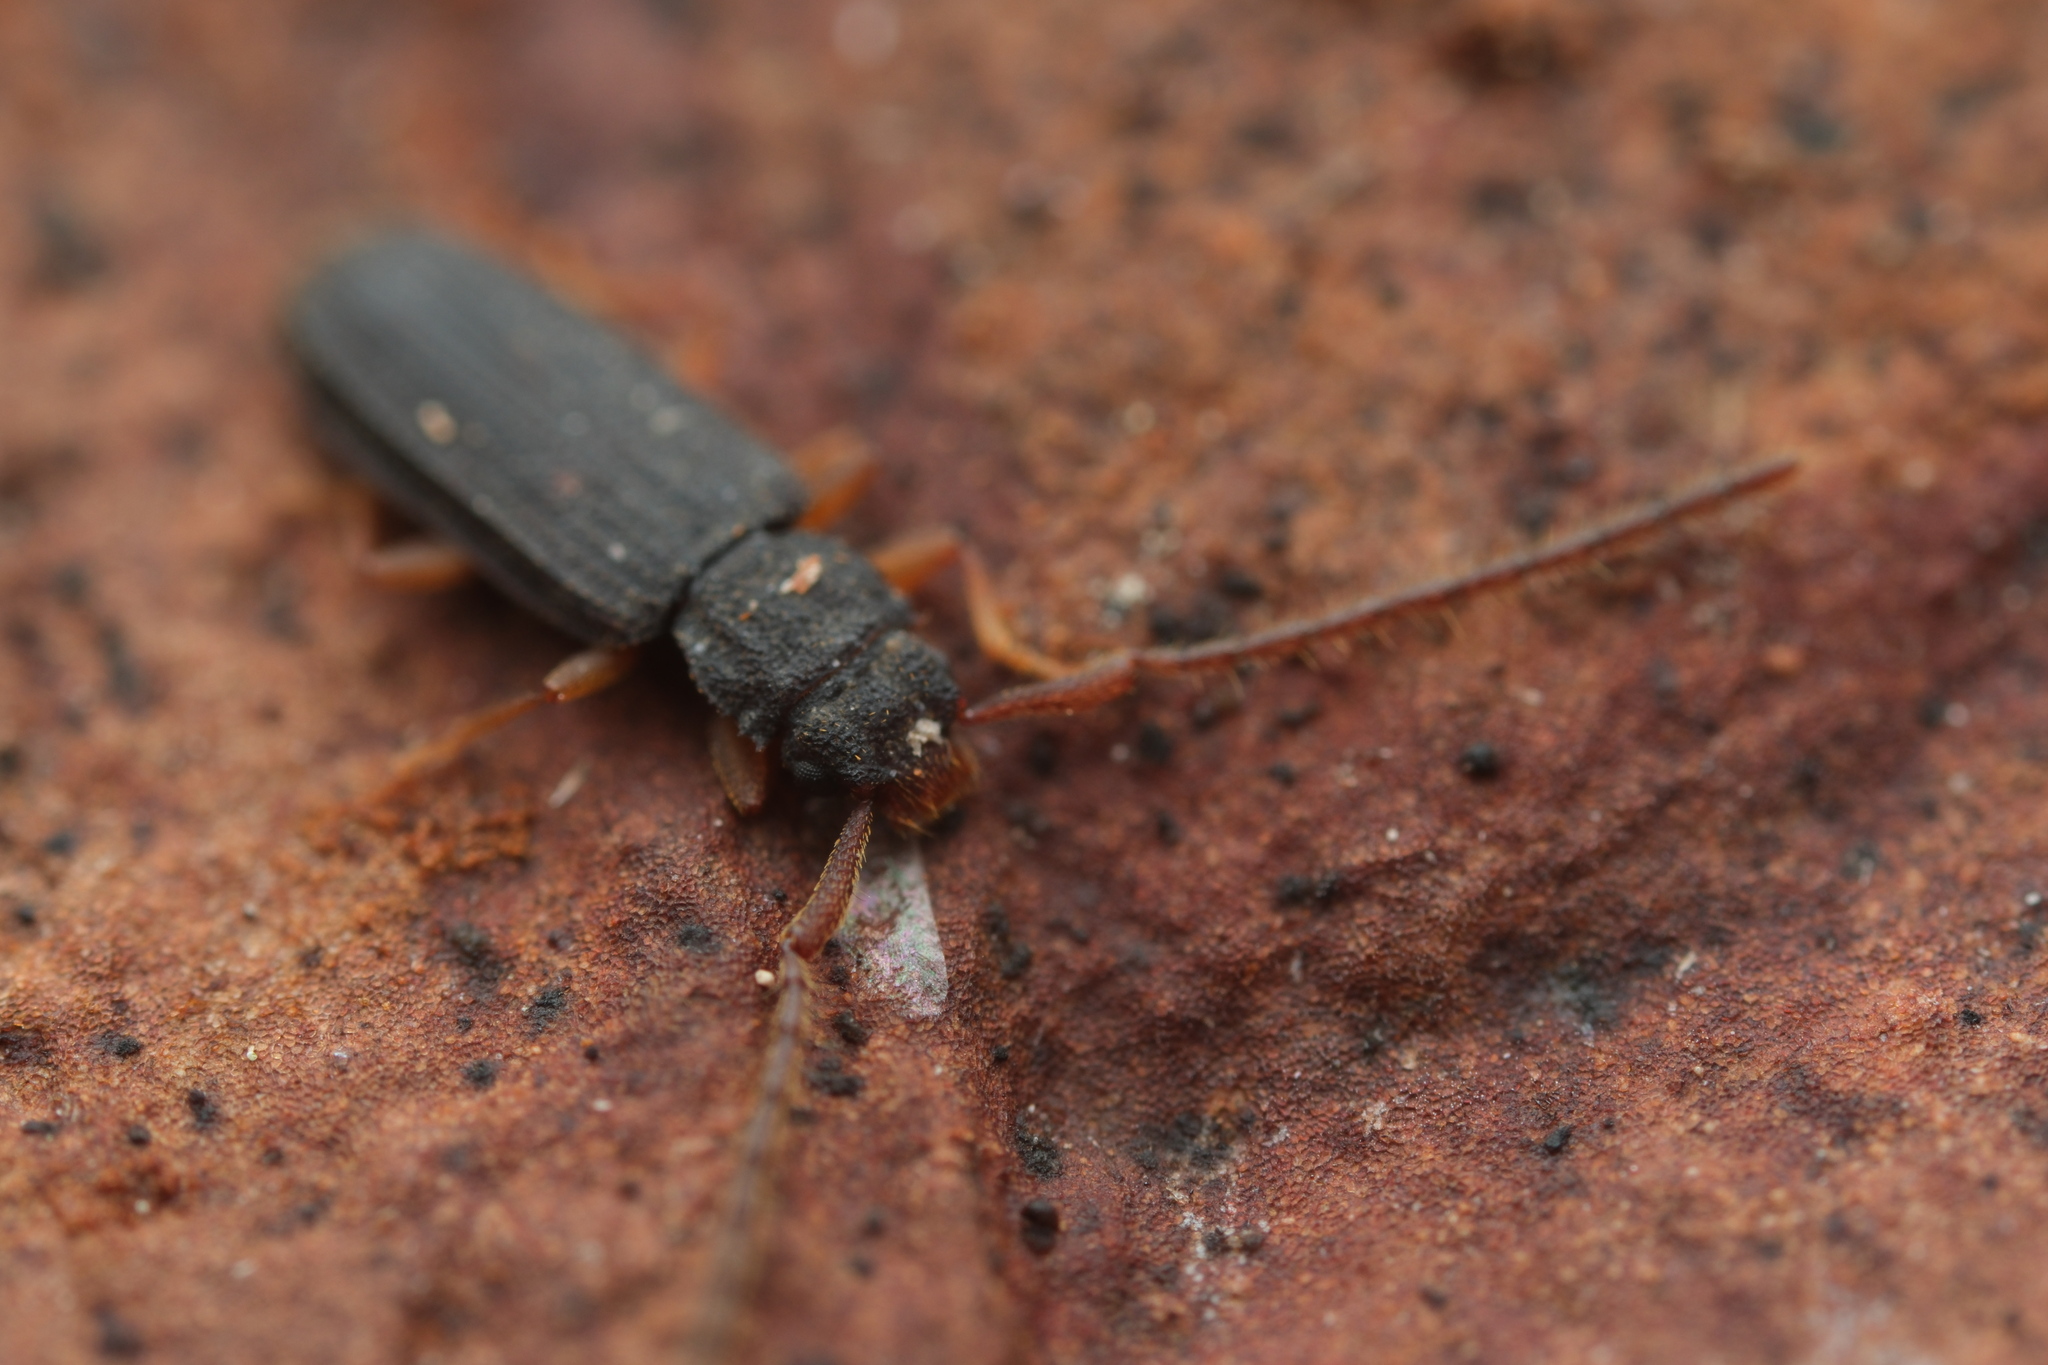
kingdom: Animalia
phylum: Arthropoda
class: Insecta
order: Coleoptera
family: Silvanidae
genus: Uleiota
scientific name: Uleiota planatus
